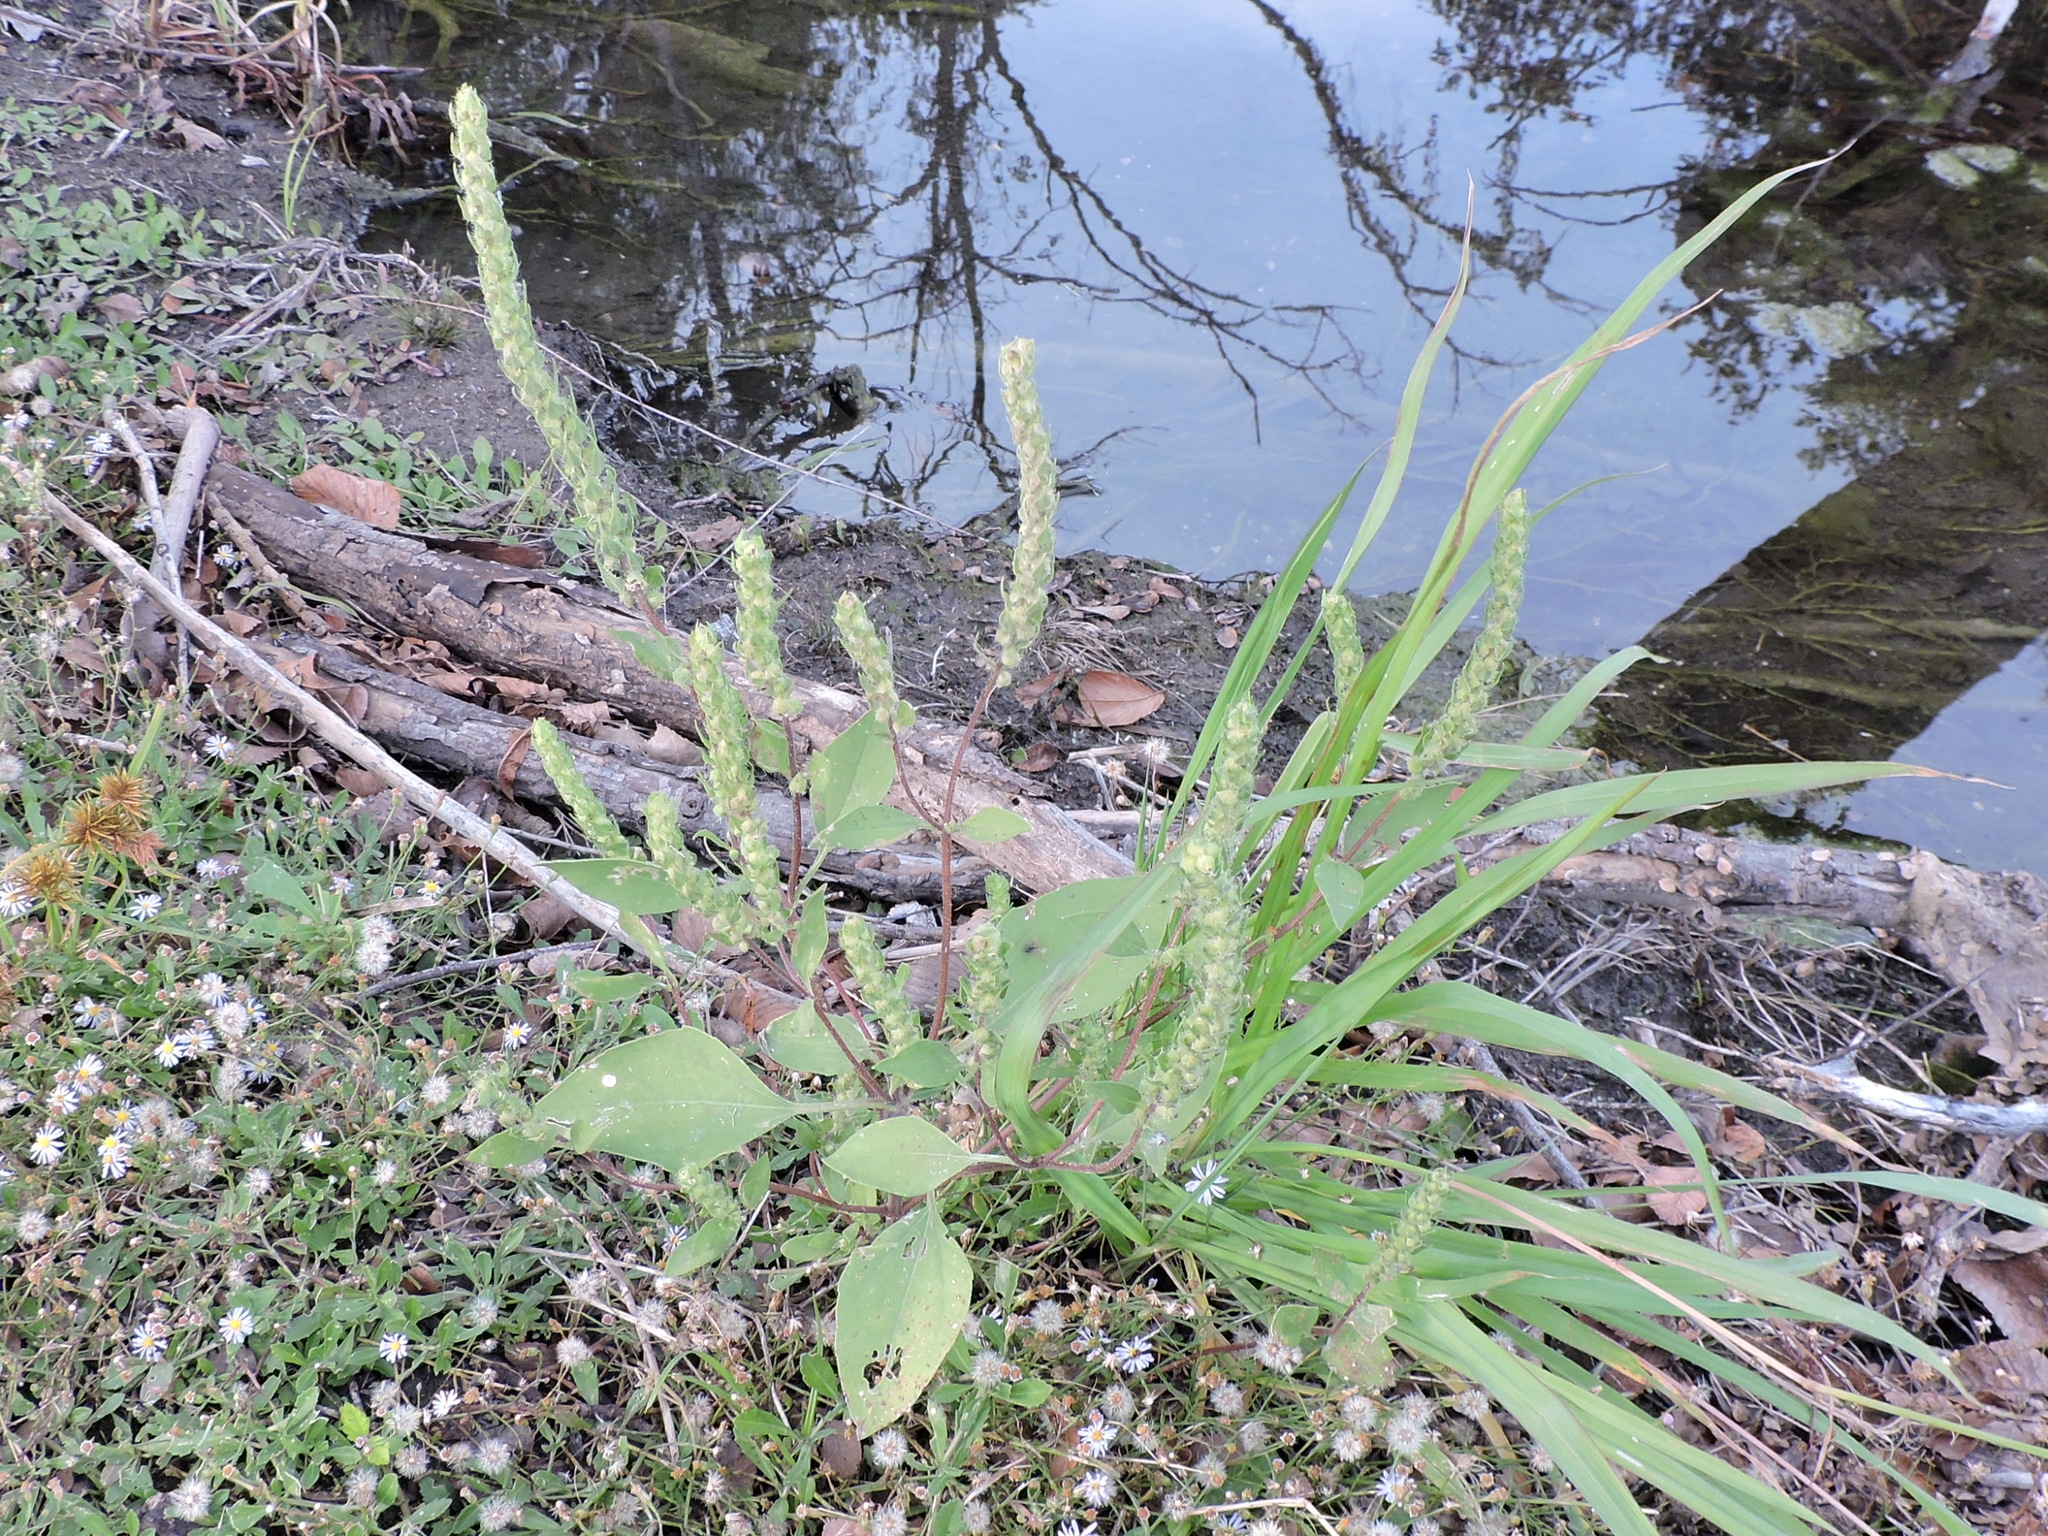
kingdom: Plantae
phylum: Tracheophyta
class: Magnoliopsida
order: Asterales
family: Asteraceae
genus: Iva
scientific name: Iva annua
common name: Marsh-elder
